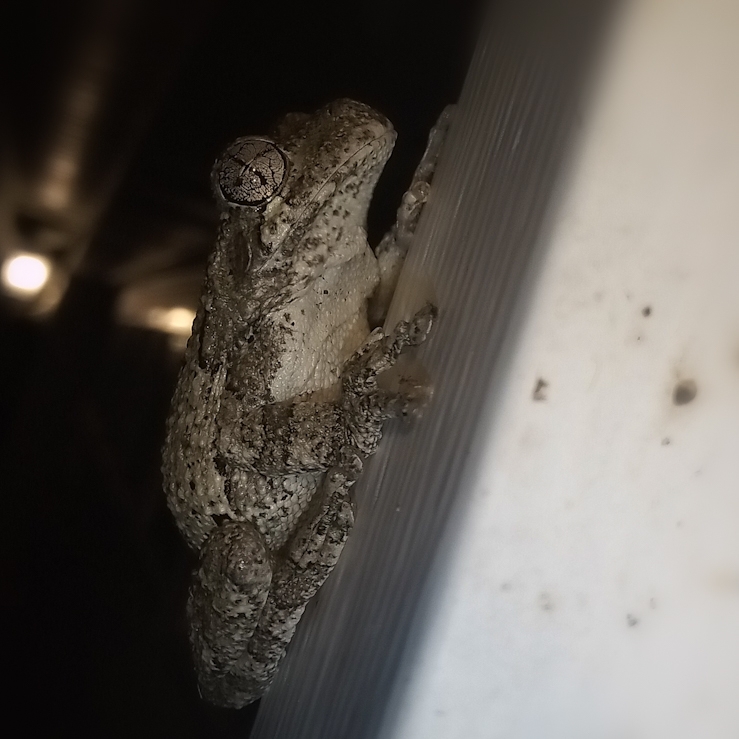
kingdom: Animalia
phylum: Chordata
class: Amphibia
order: Anura
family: Hylidae
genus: Dryophytes
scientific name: Dryophytes chrysoscelis
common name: Cope's gray treefrog
